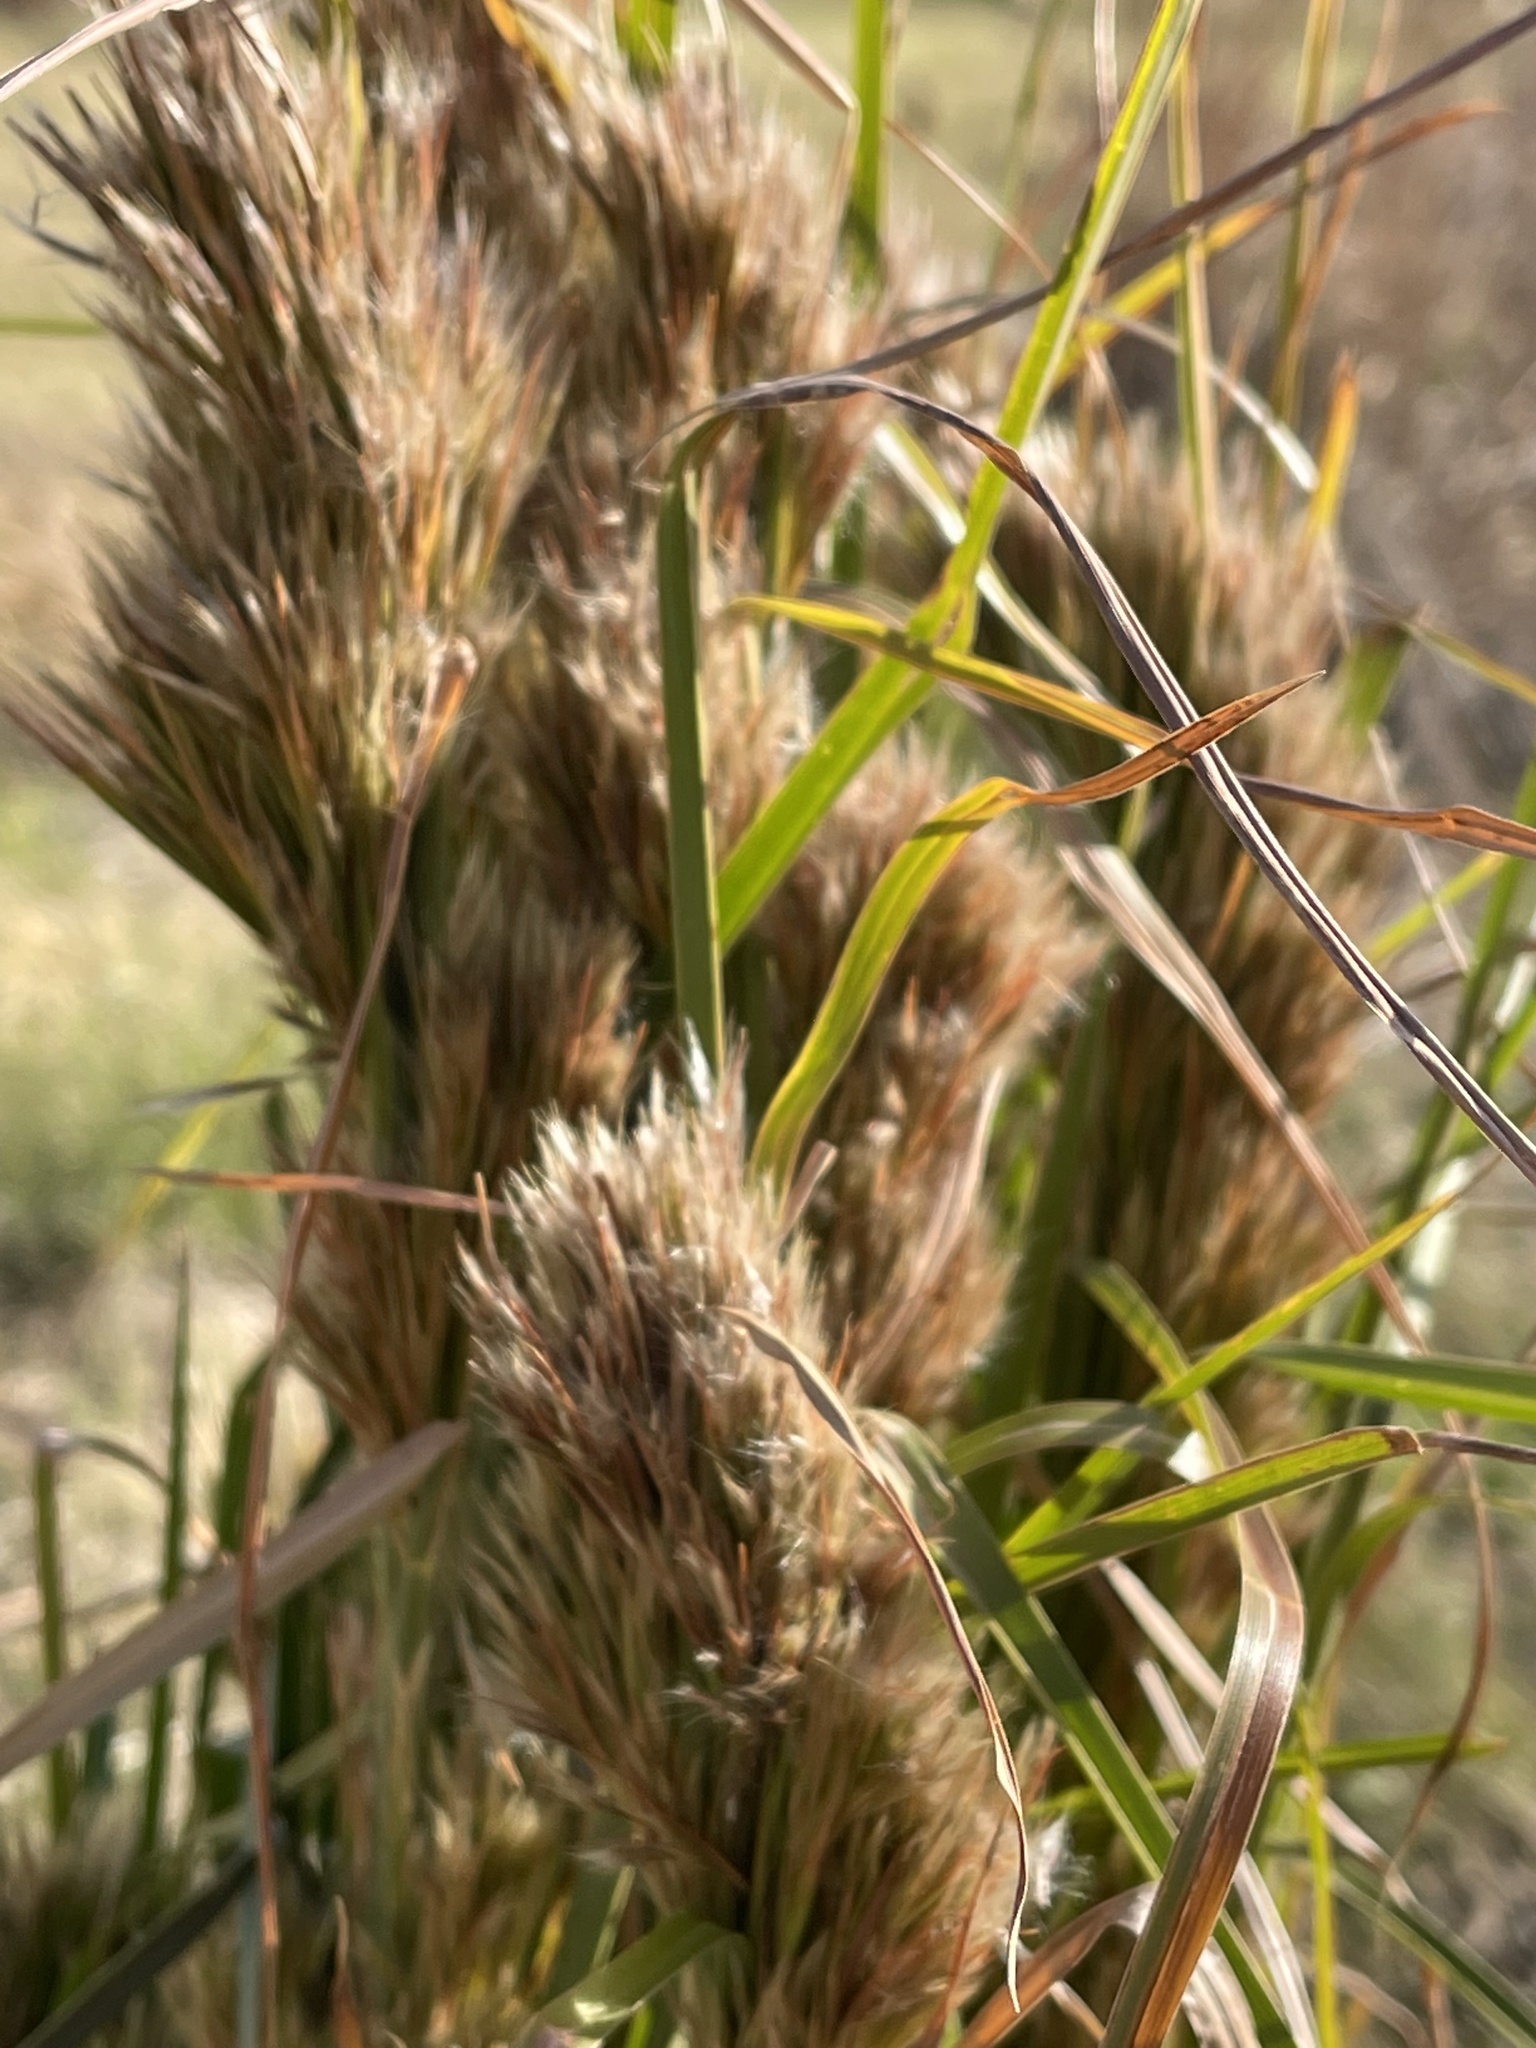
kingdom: Plantae
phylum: Tracheophyta
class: Liliopsida
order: Poales
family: Poaceae
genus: Andropogon
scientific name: Andropogon tenuispatheus
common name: Bushy bluestem
